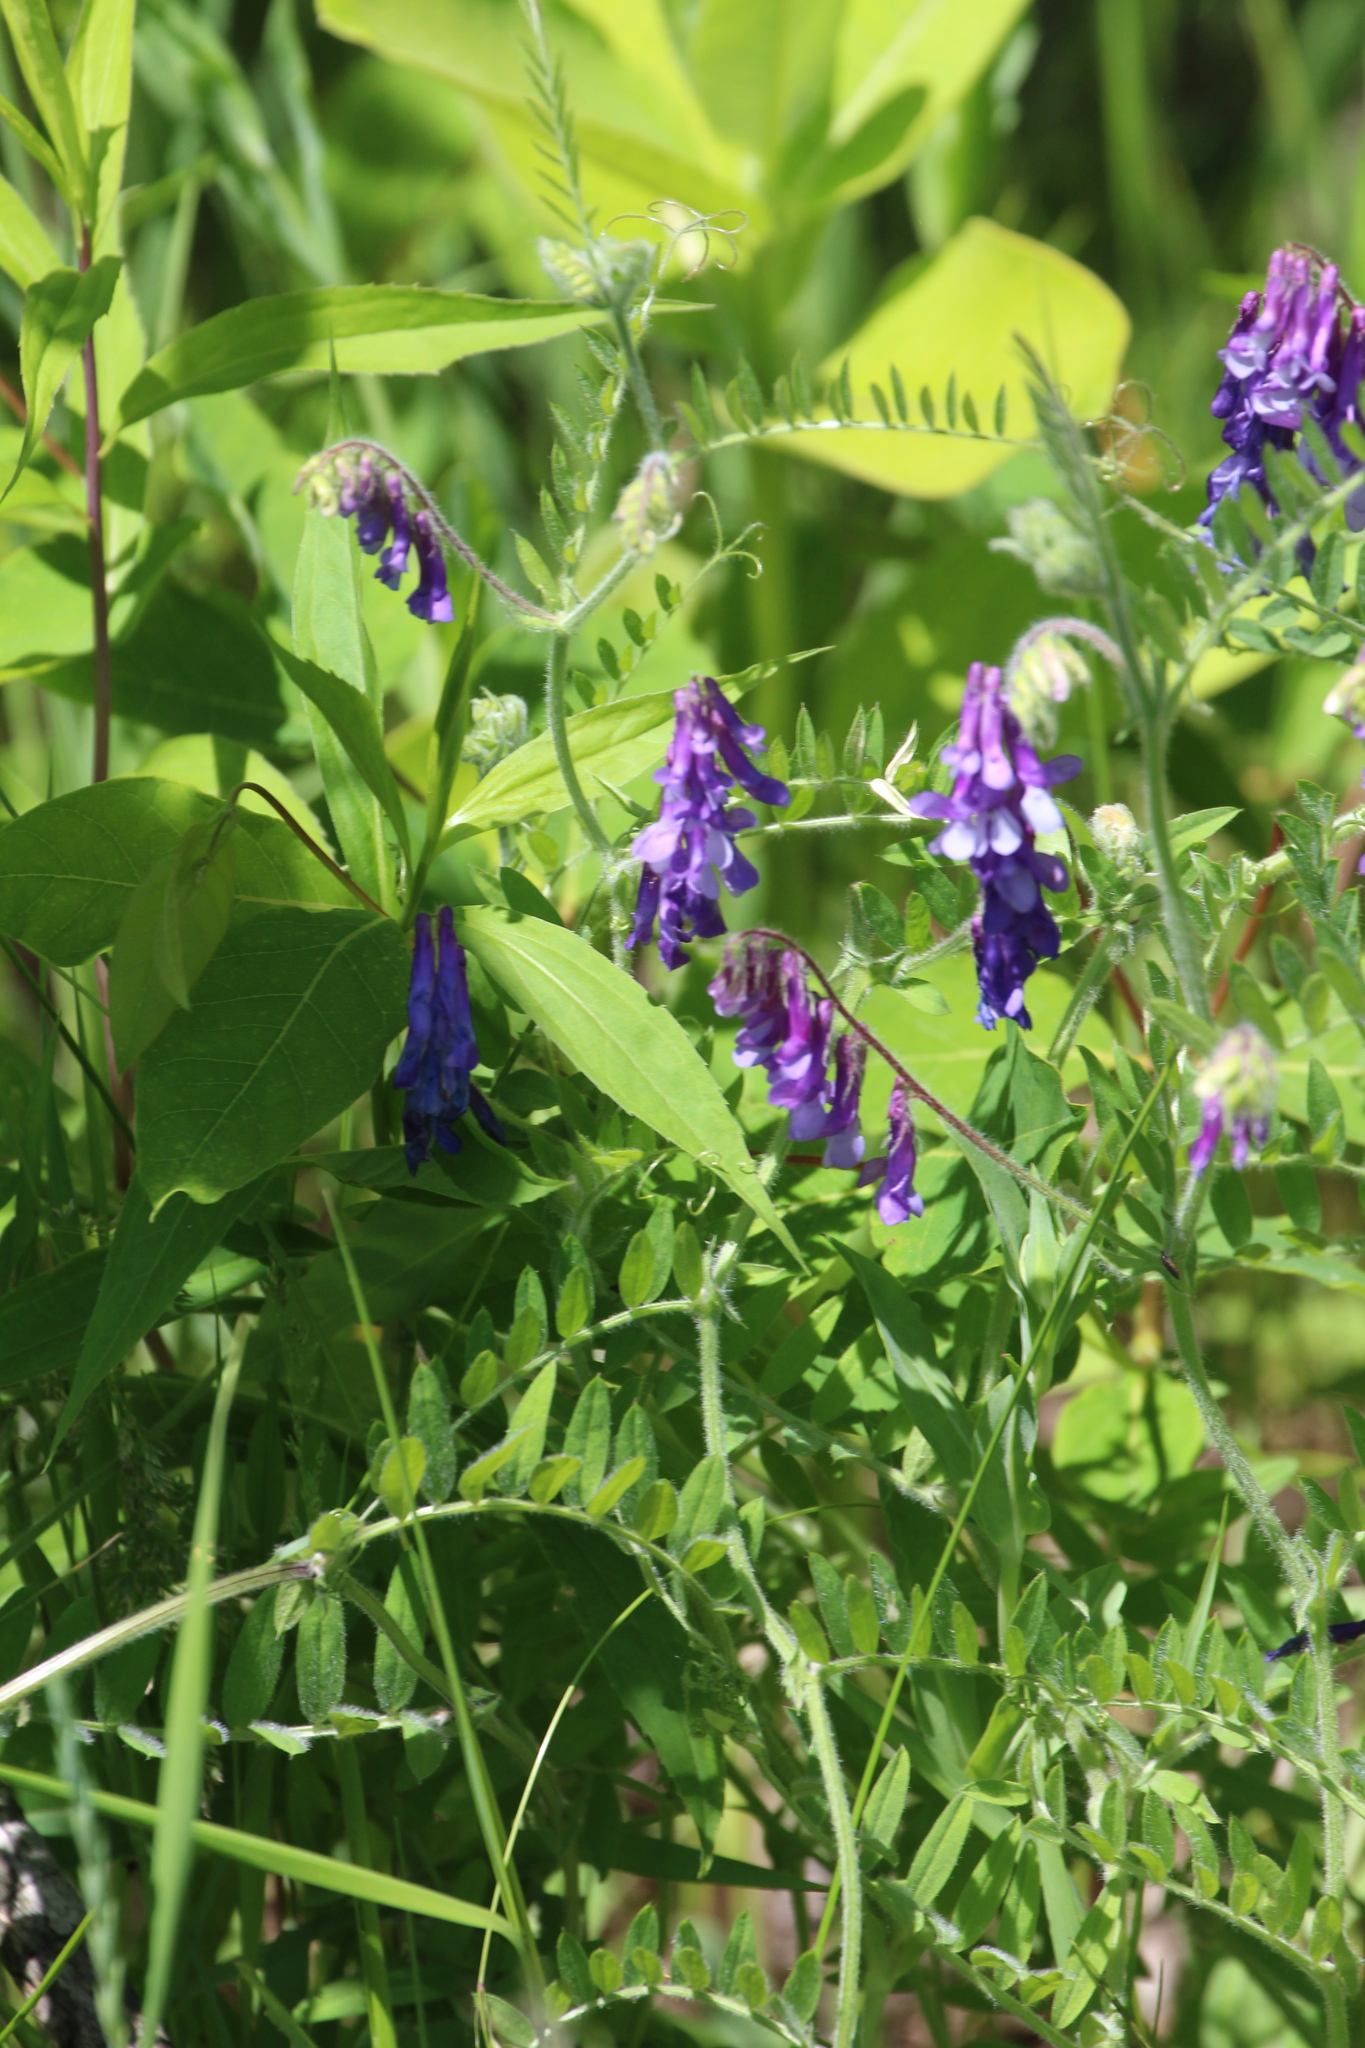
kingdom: Plantae
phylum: Tracheophyta
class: Magnoliopsida
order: Fabales
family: Fabaceae
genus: Vicia
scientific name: Vicia villosa
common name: Fodder vetch
